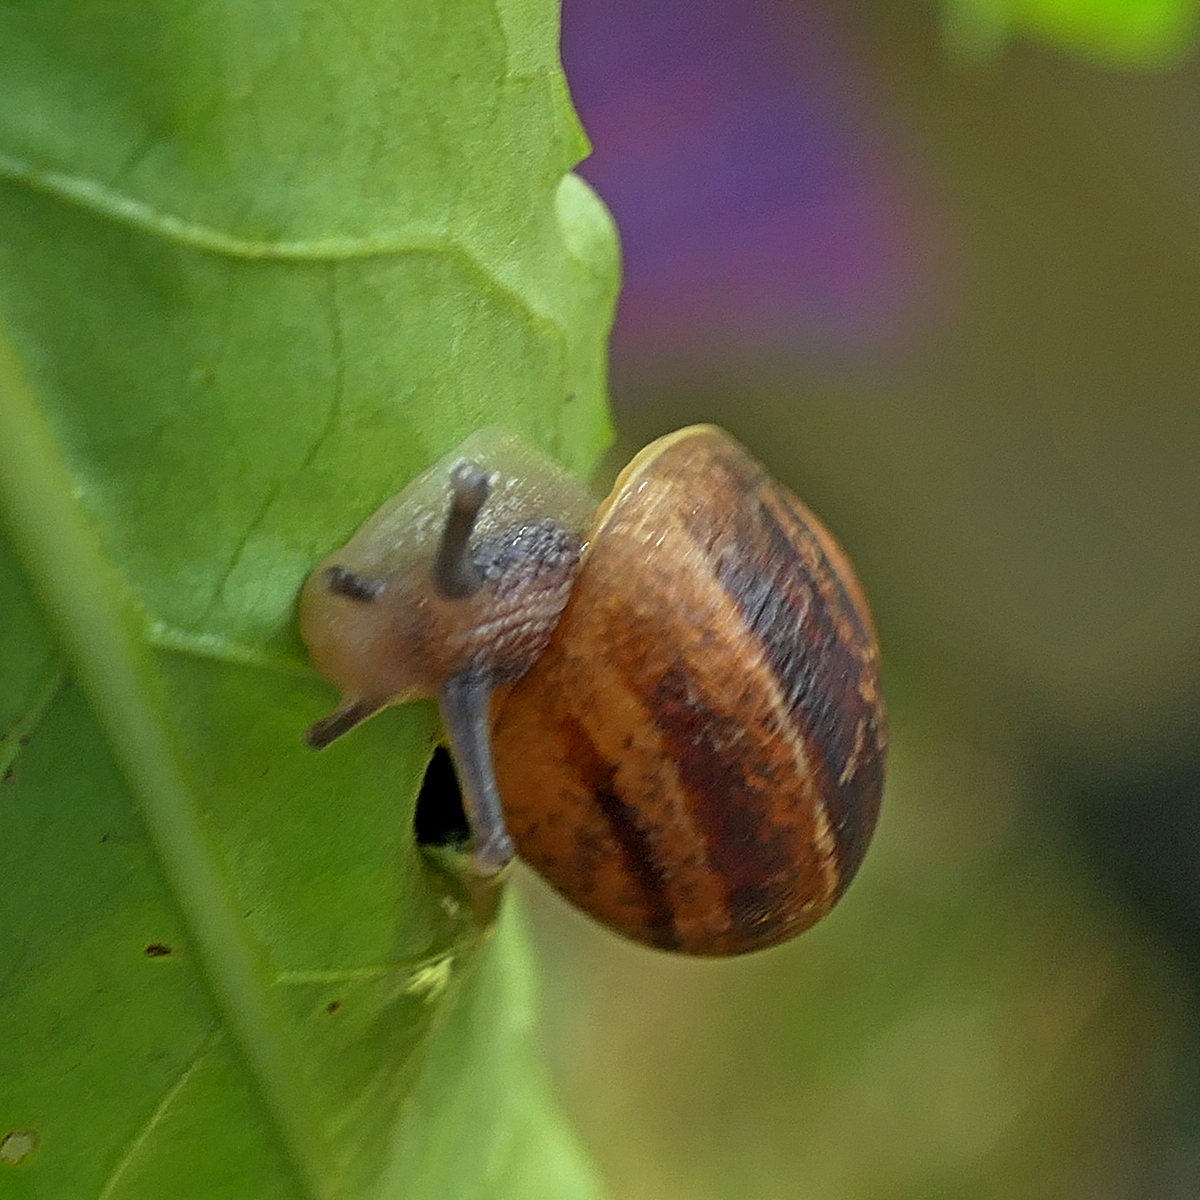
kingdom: Animalia
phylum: Mollusca
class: Gastropoda
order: Stylommatophora
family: Helicidae
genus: Cornu
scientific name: Cornu aspersum
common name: Brown garden snail
